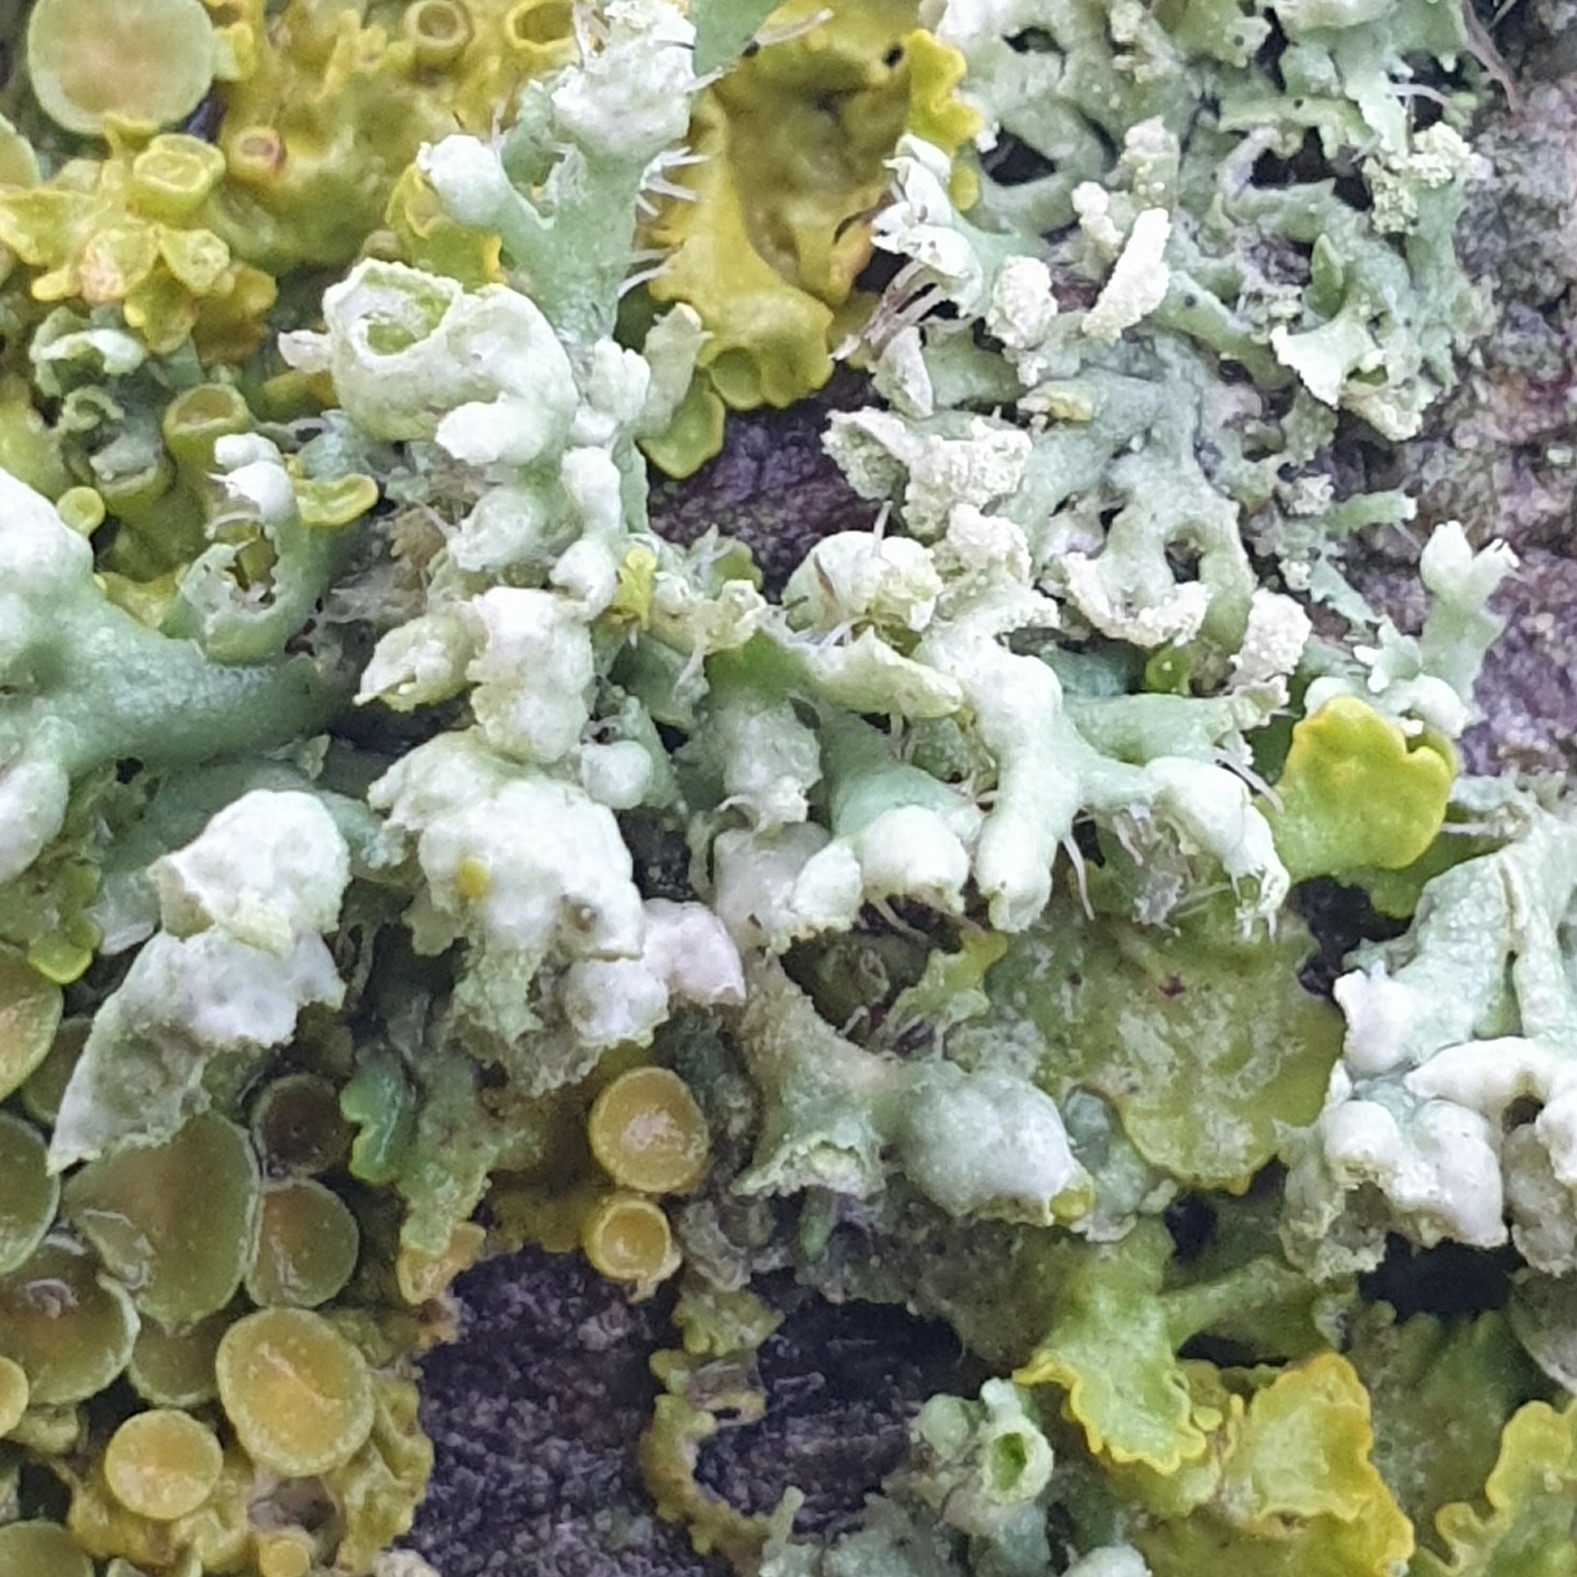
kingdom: Fungi
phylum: Ascomycota
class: Lecanoromycetes
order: Caliciales
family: Physciaceae
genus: Physcia
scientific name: Physcia adscendens
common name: Hooded rosette lichen
